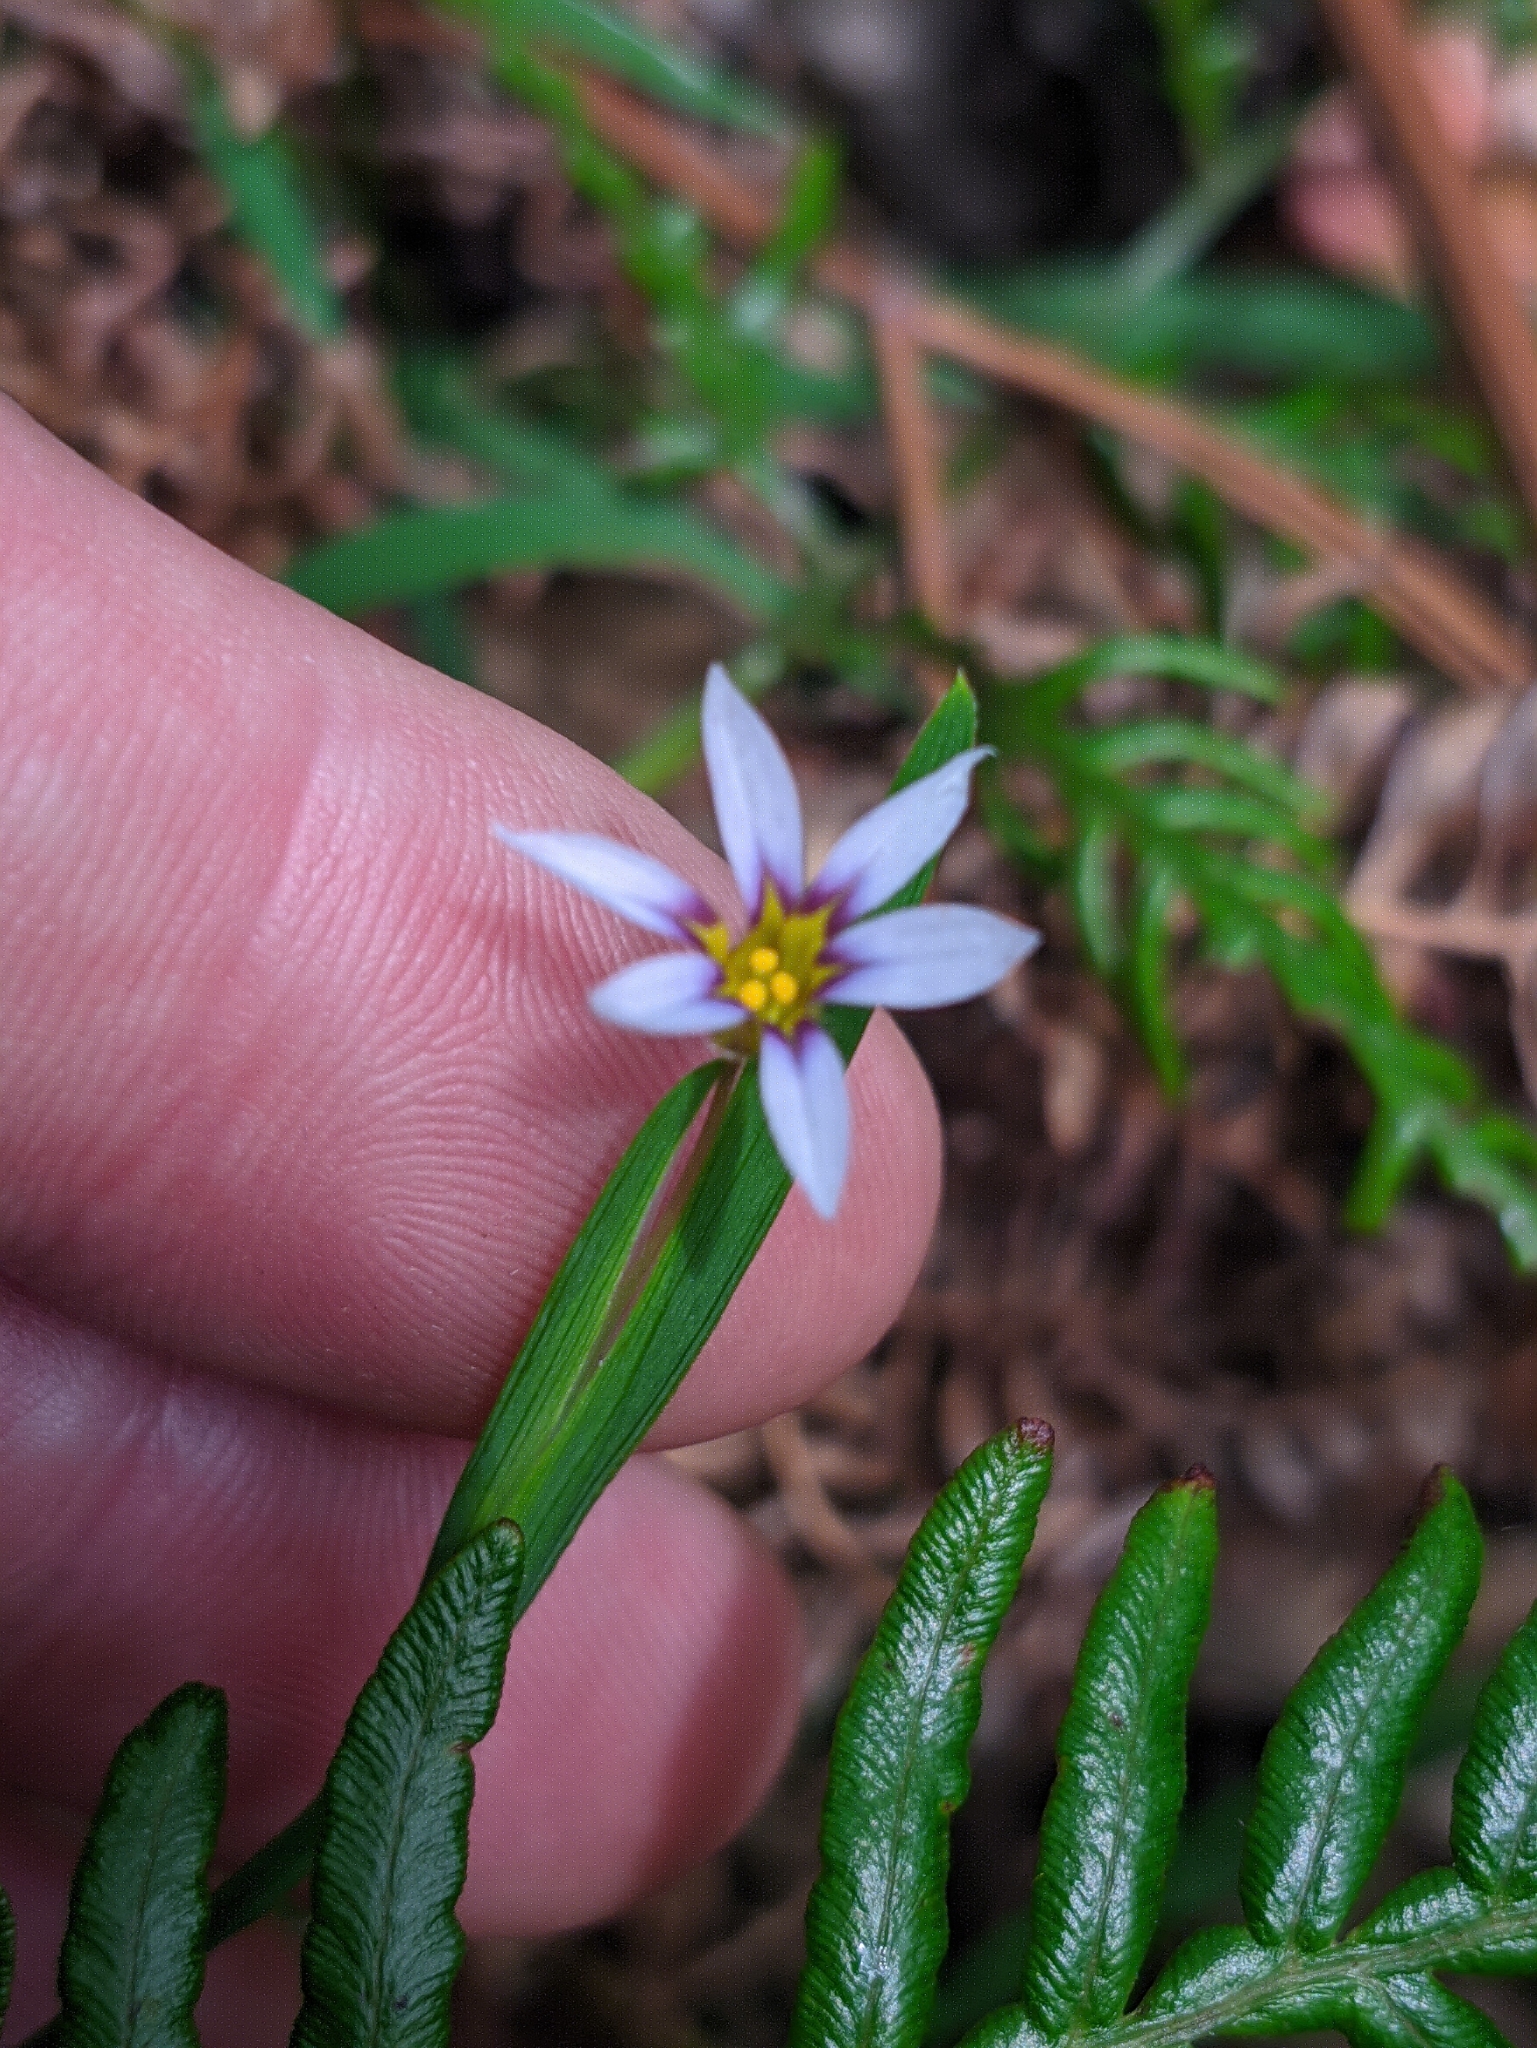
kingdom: Plantae
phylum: Tracheophyta
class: Liliopsida
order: Asparagales
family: Iridaceae
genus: Sisyrinchium
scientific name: Sisyrinchium micranthum
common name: Bermuda pigroot
